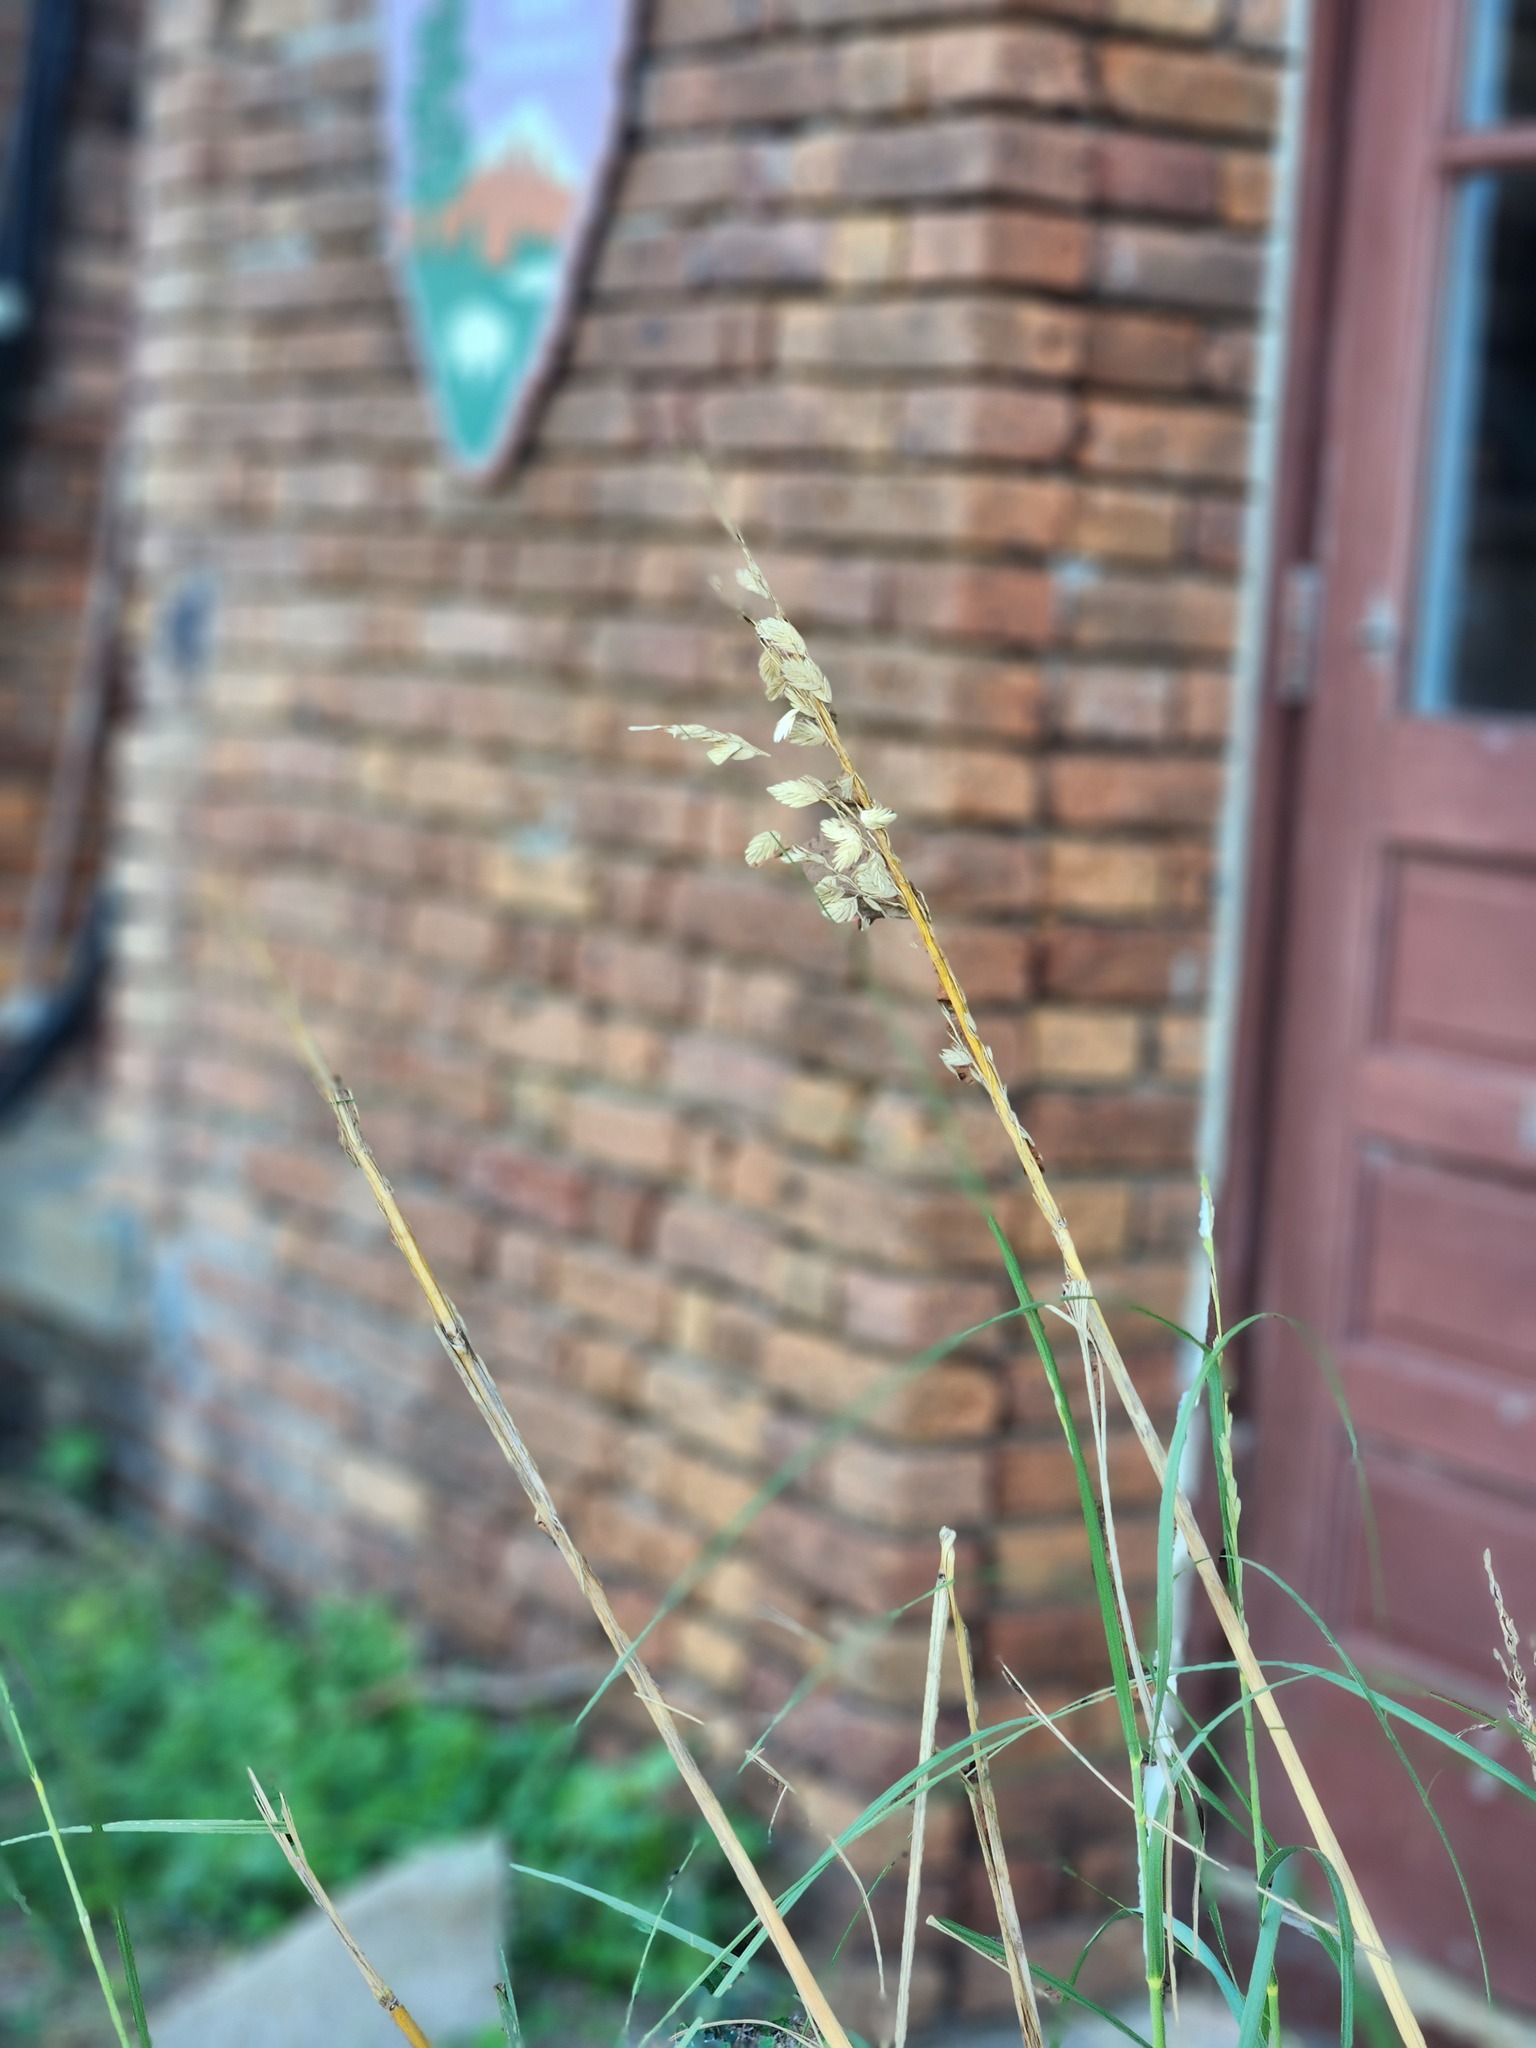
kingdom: Plantae
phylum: Tracheophyta
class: Liliopsida
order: Poales
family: Poaceae
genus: Uniola
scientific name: Uniola paniculata
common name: Seaside-oats
